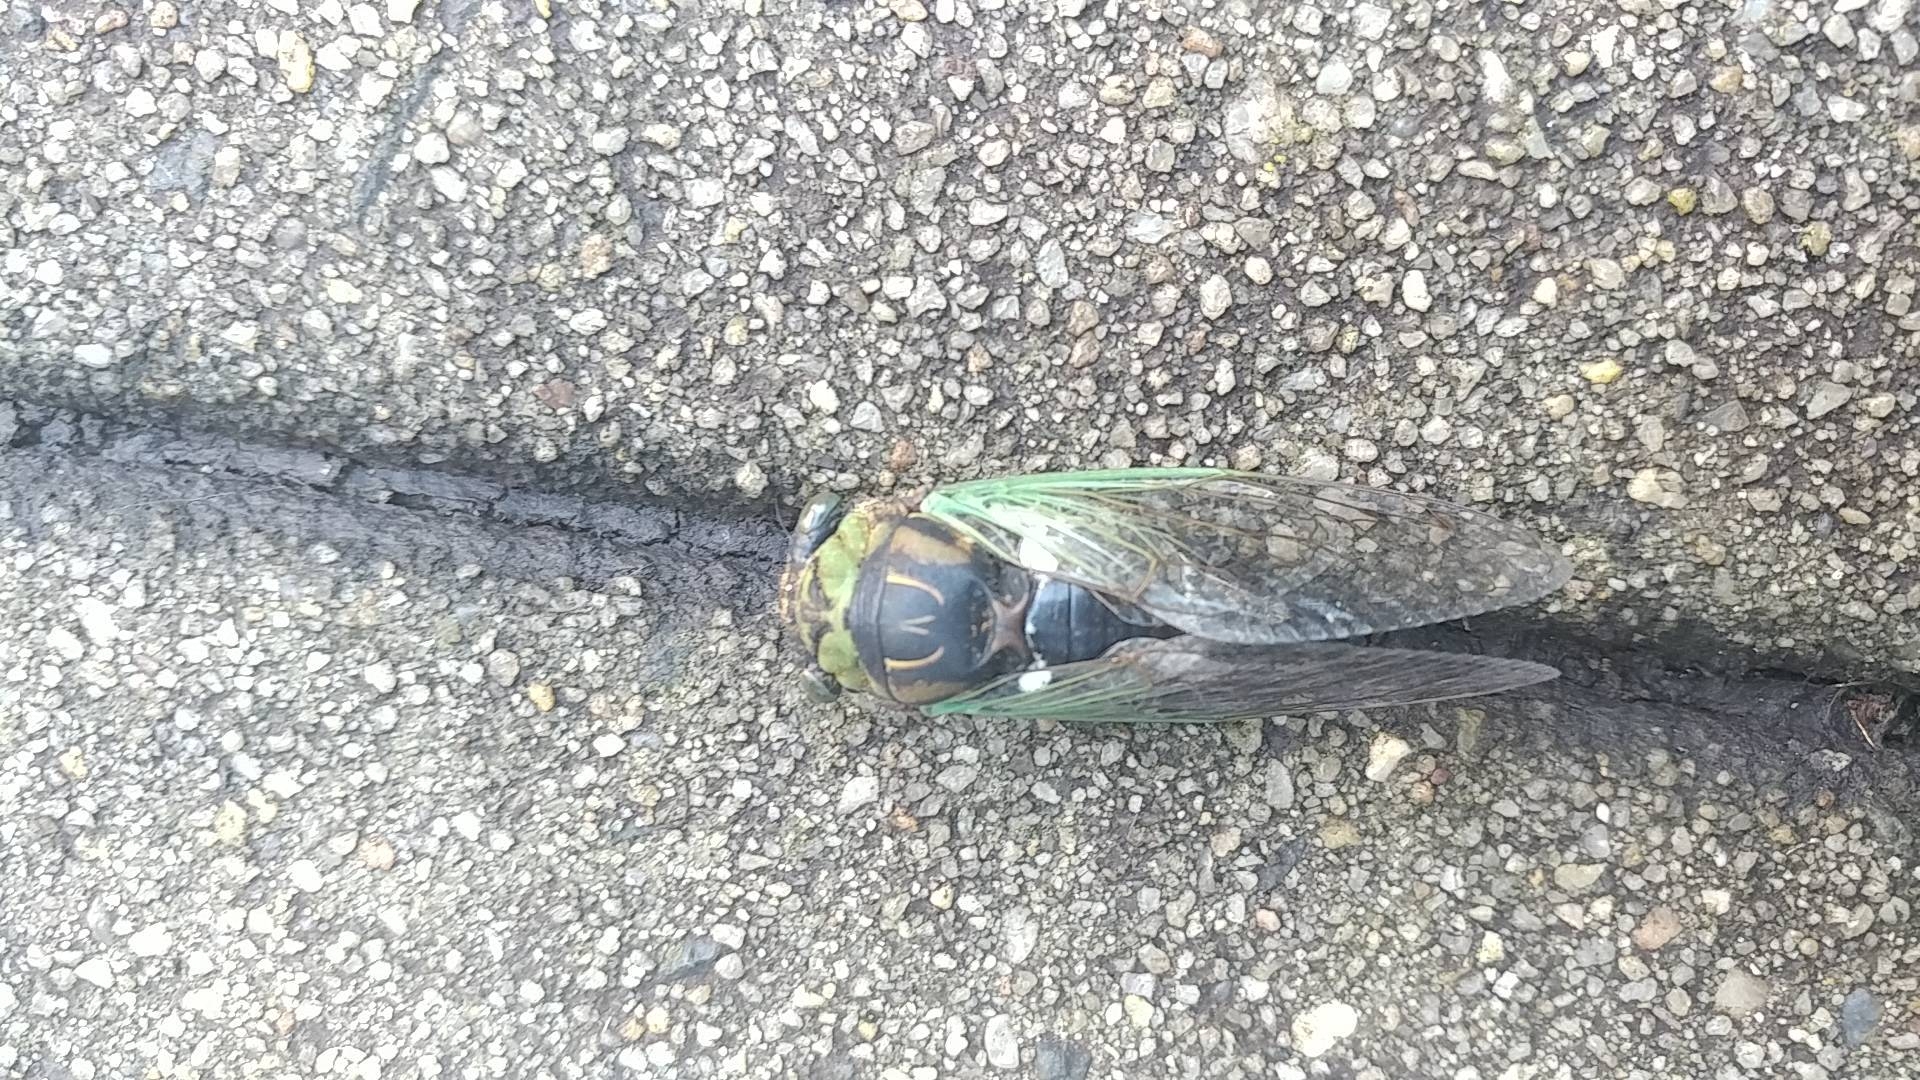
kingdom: Animalia
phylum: Arthropoda
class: Insecta
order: Hemiptera
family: Cicadidae
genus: Neotibicen
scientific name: Neotibicen tibicen
